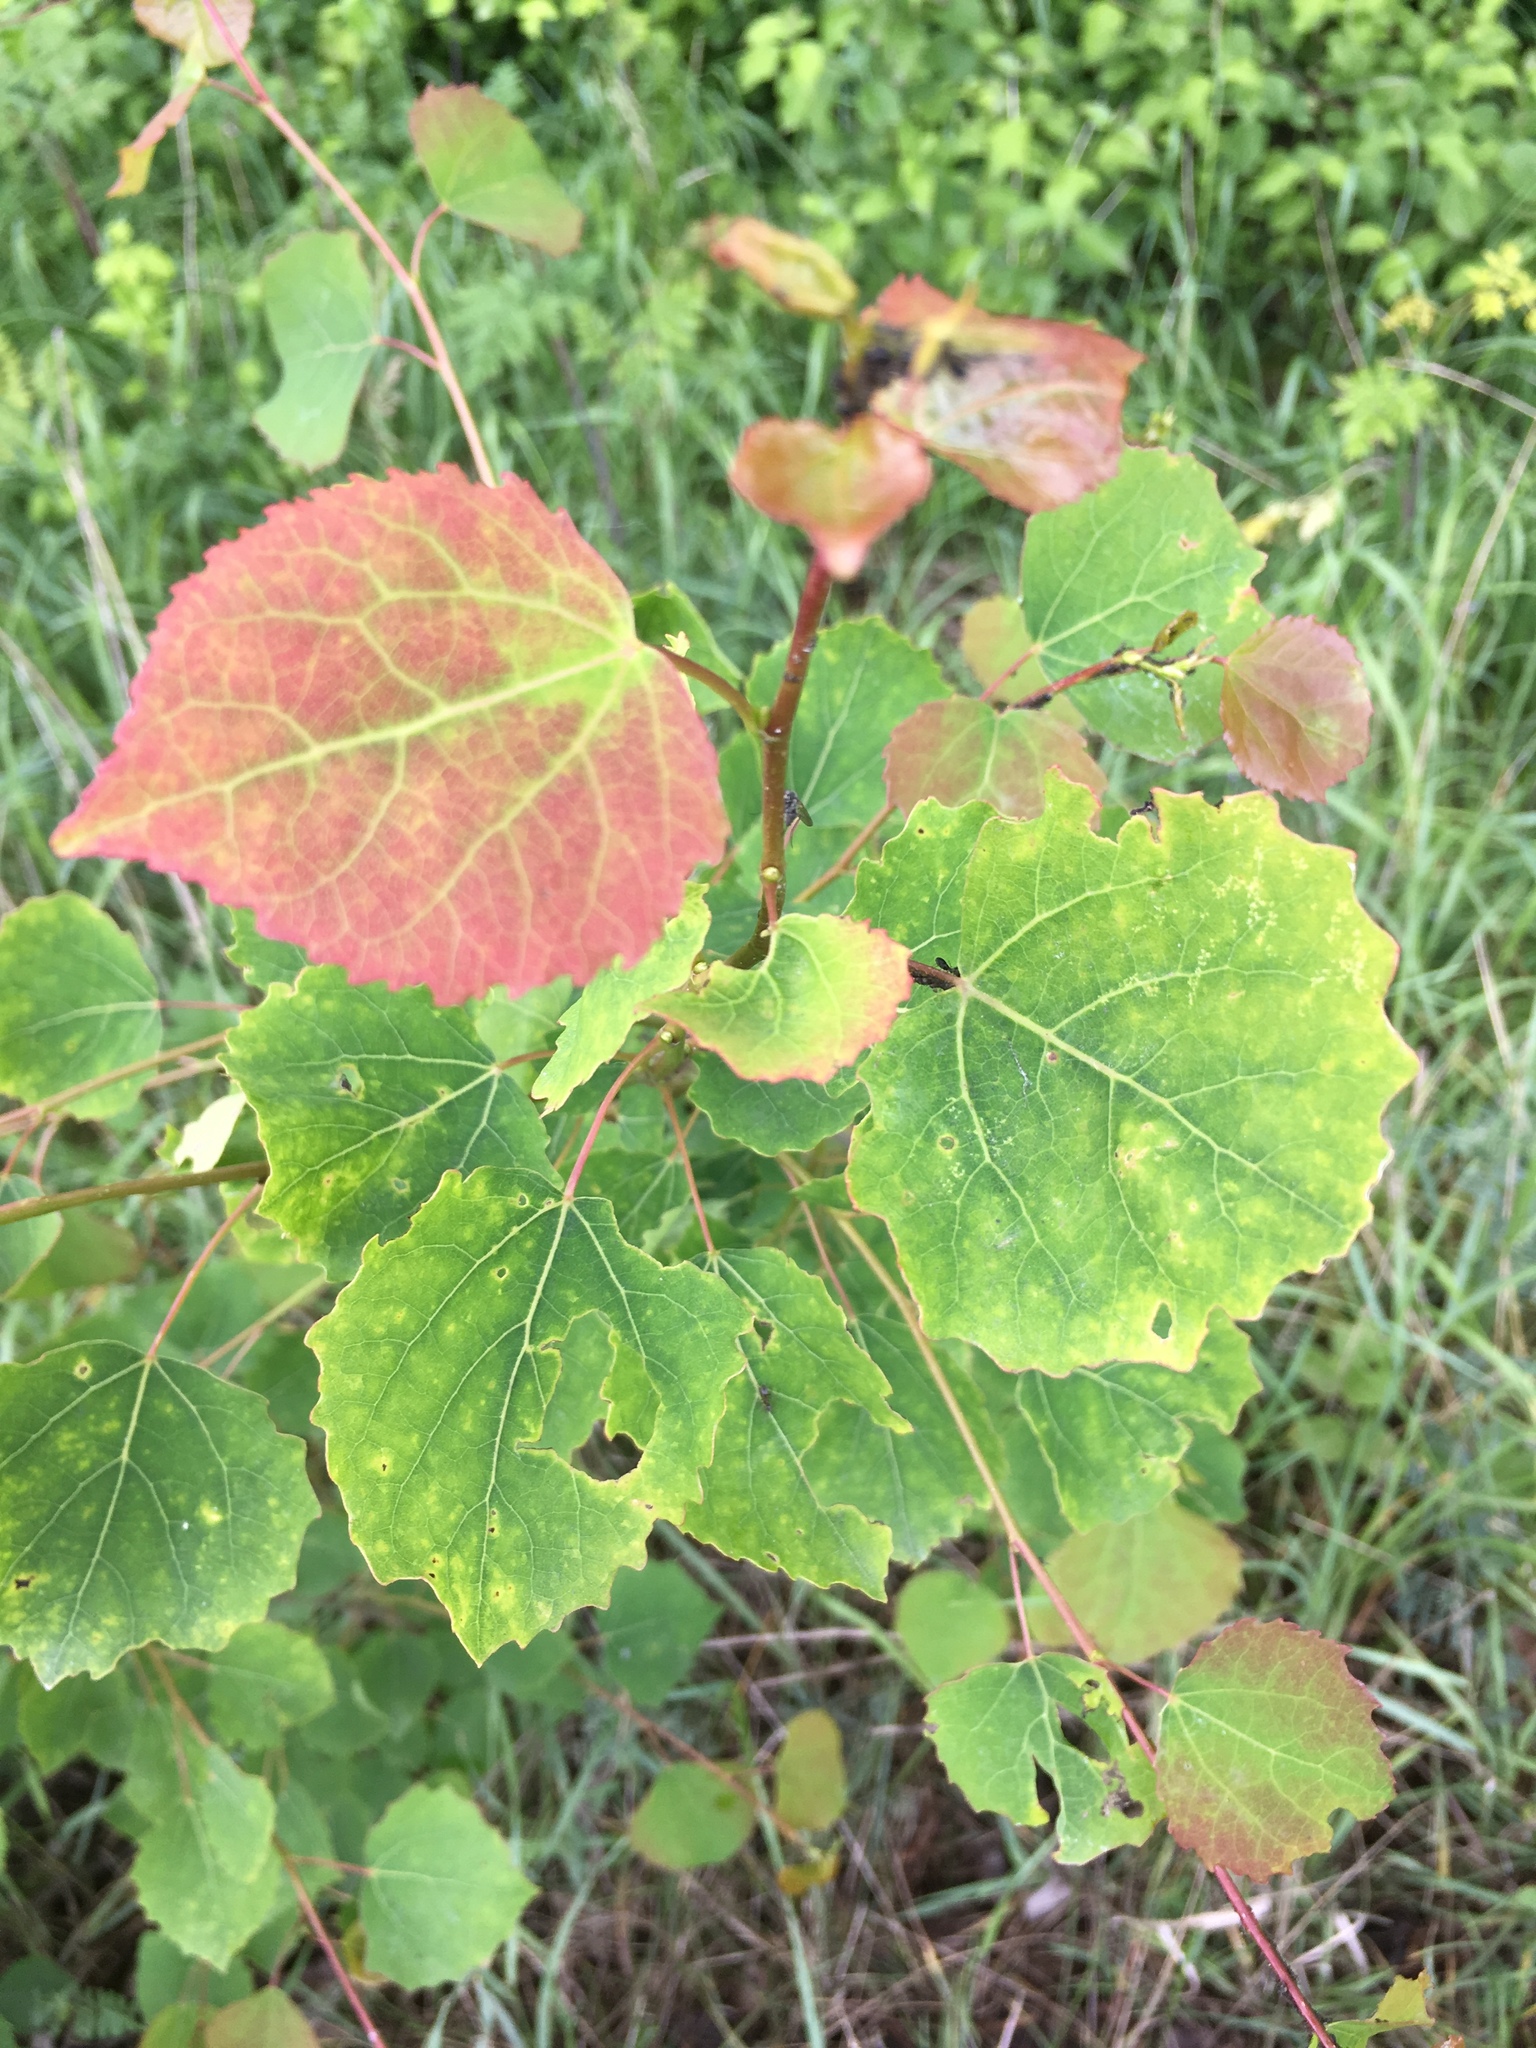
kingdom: Plantae
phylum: Tracheophyta
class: Magnoliopsida
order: Malpighiales
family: Salicaceae
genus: Populus
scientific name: Populus tremula
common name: European aspen
